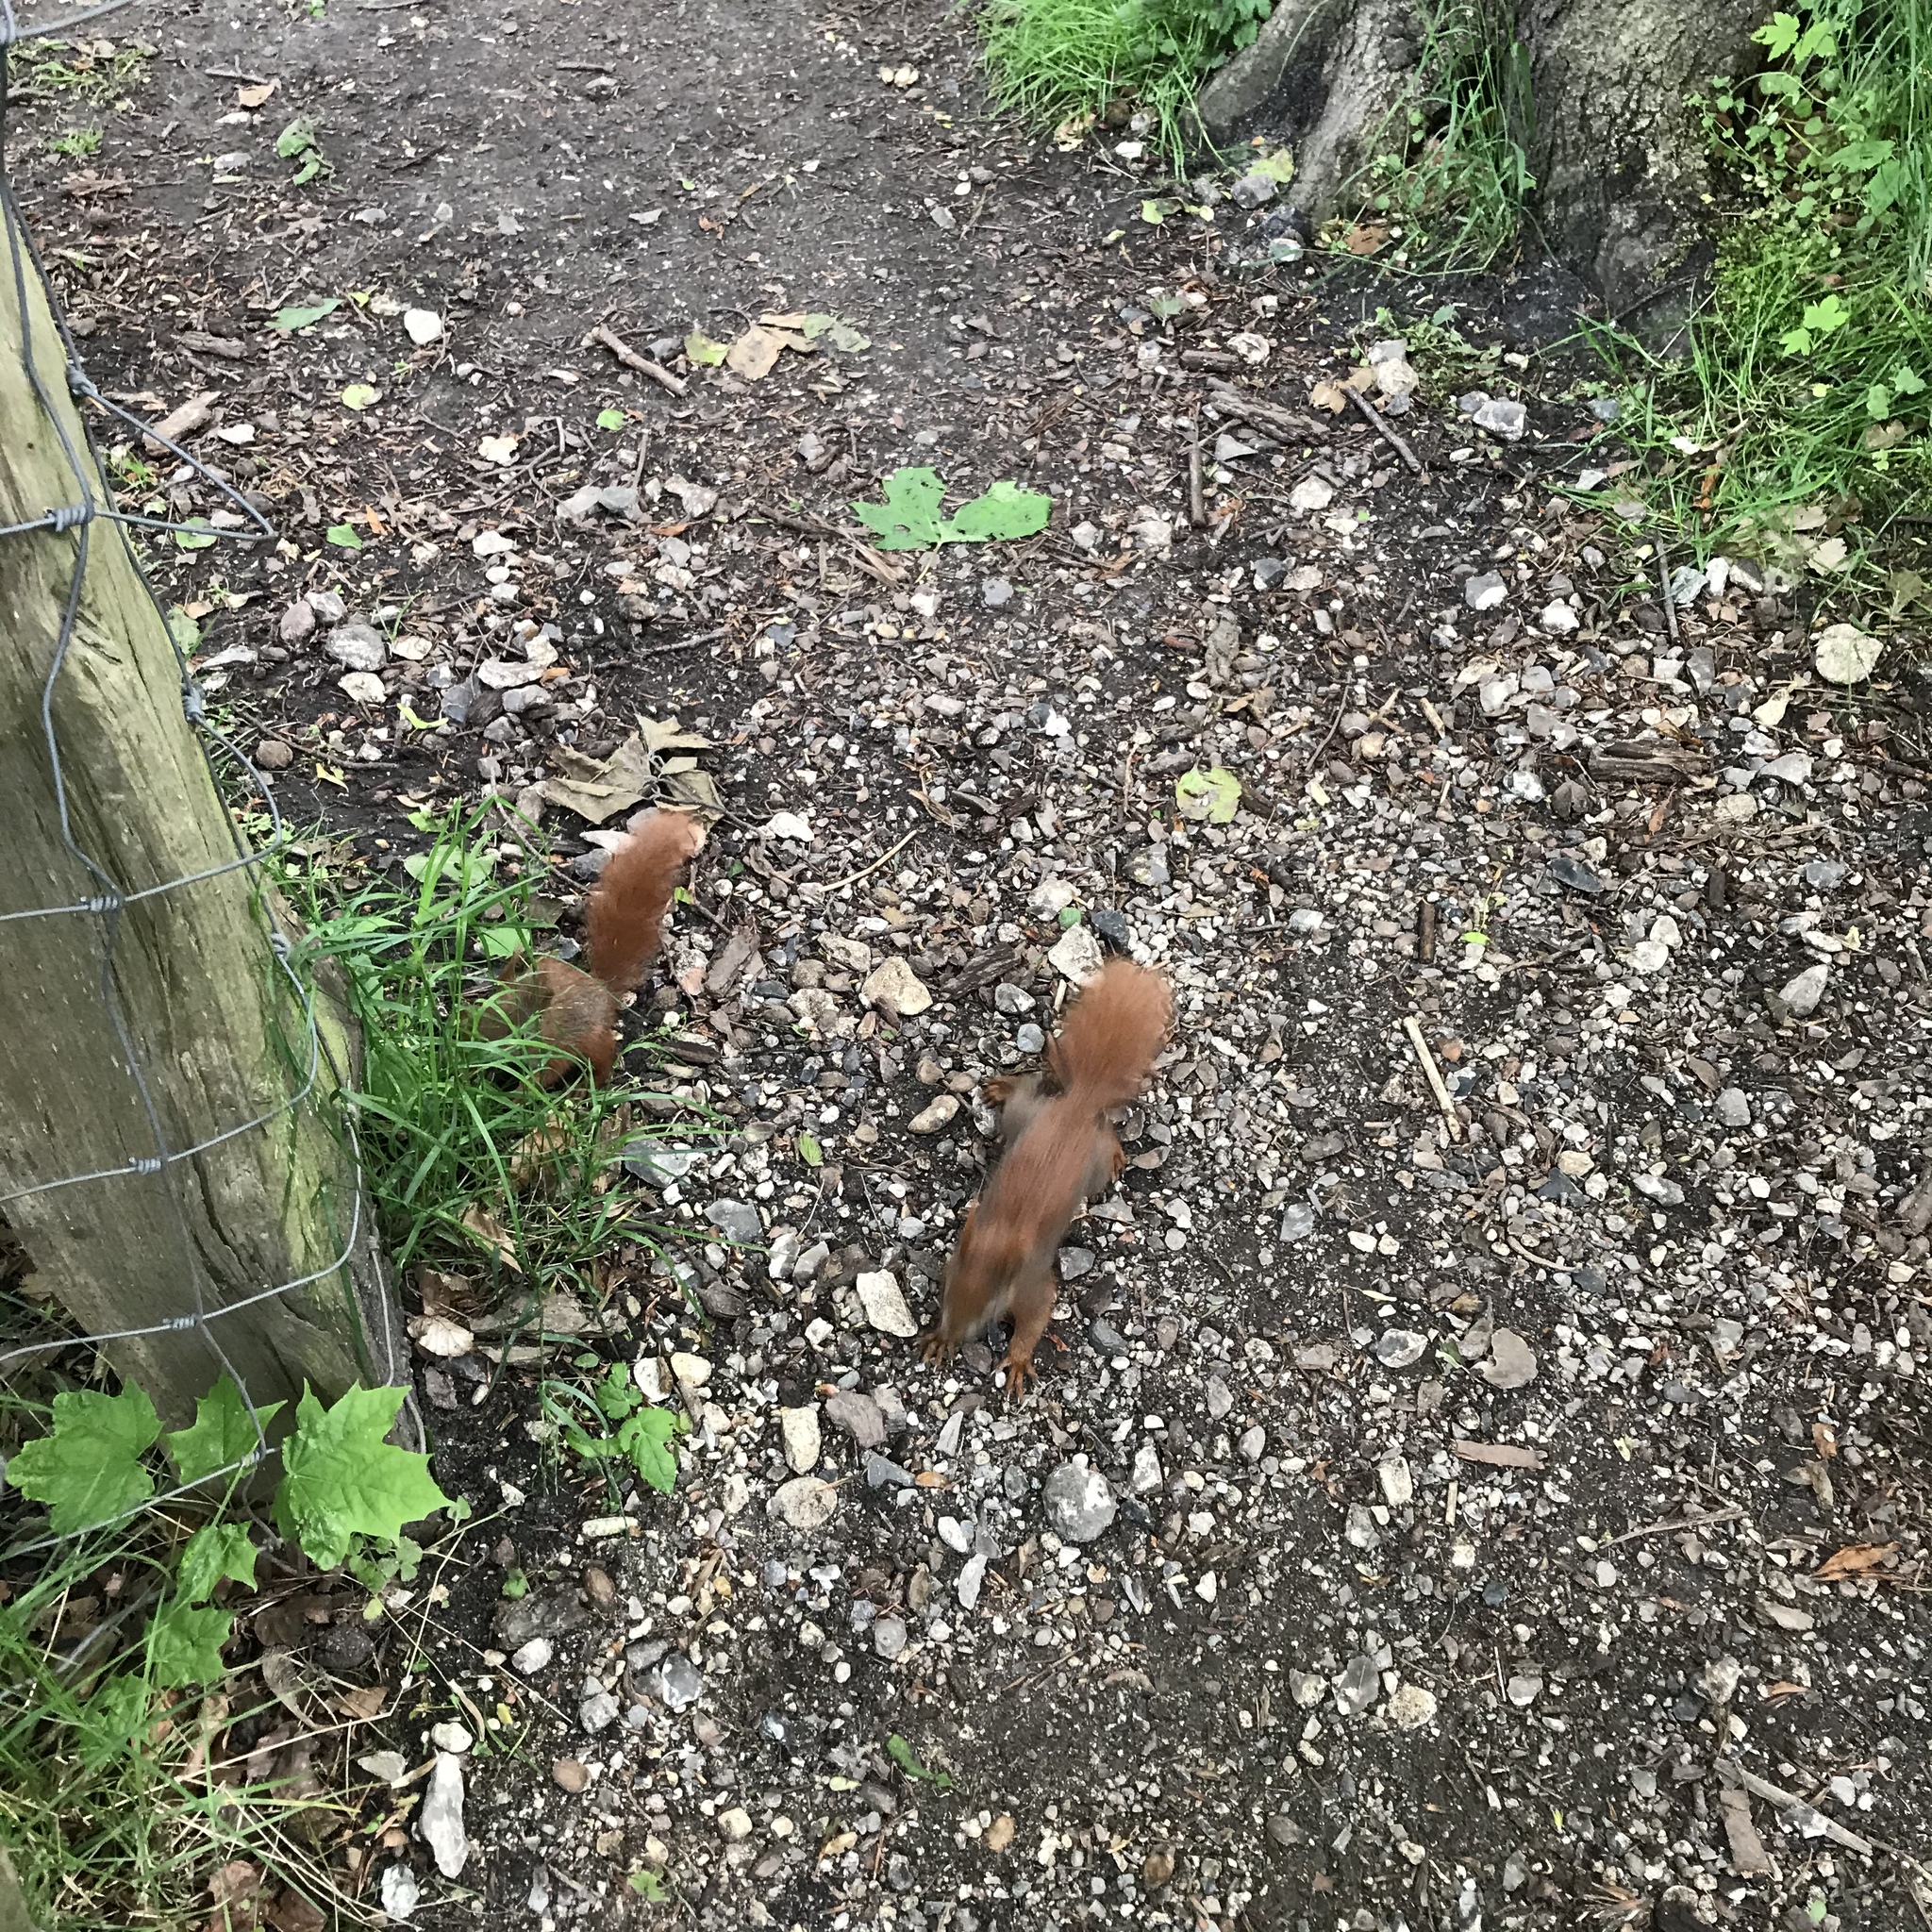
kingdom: Animalia
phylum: Chordata
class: Mammalia
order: Rodentia
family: Sciuridae
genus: Sciurus
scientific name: Sciurus vulgaris
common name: Eurasian red squirrel
